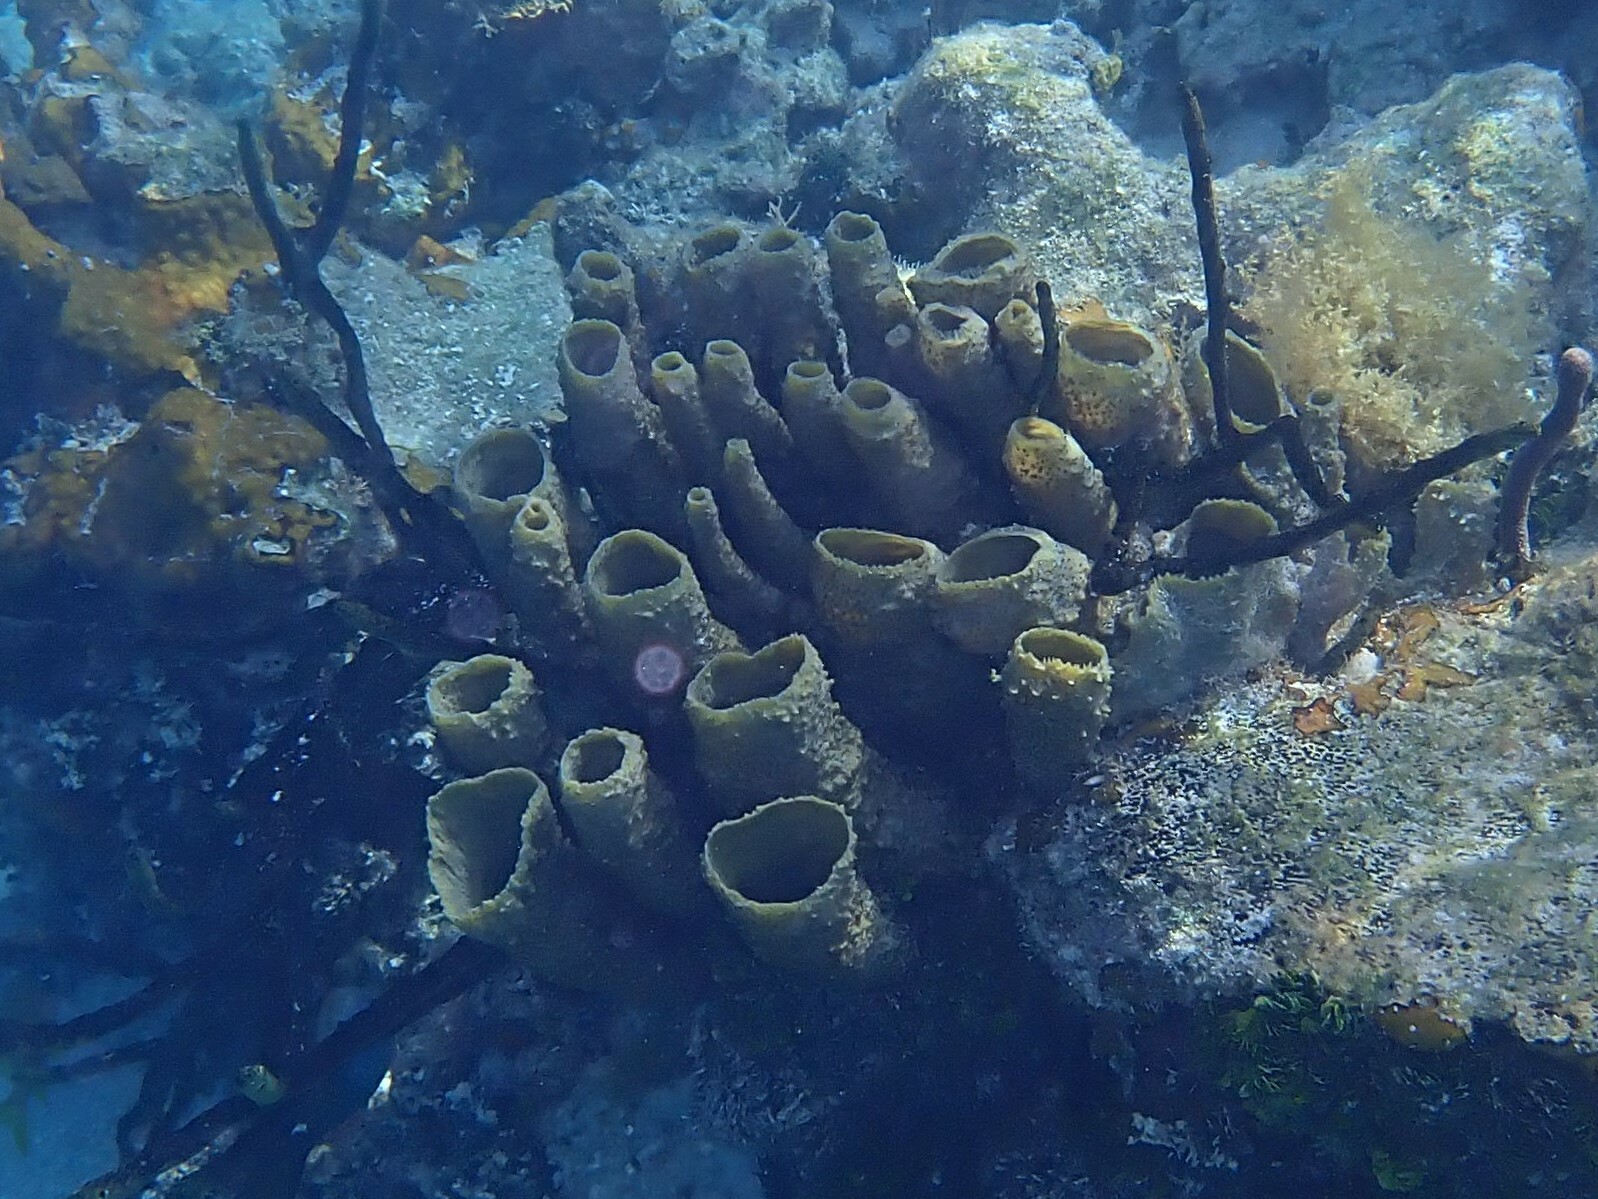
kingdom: Animalia
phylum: Porifera
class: Demospongiae
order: Haplosclerida
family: Callyspongiidae
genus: Callyspongia
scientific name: Callyspongia aculeata
